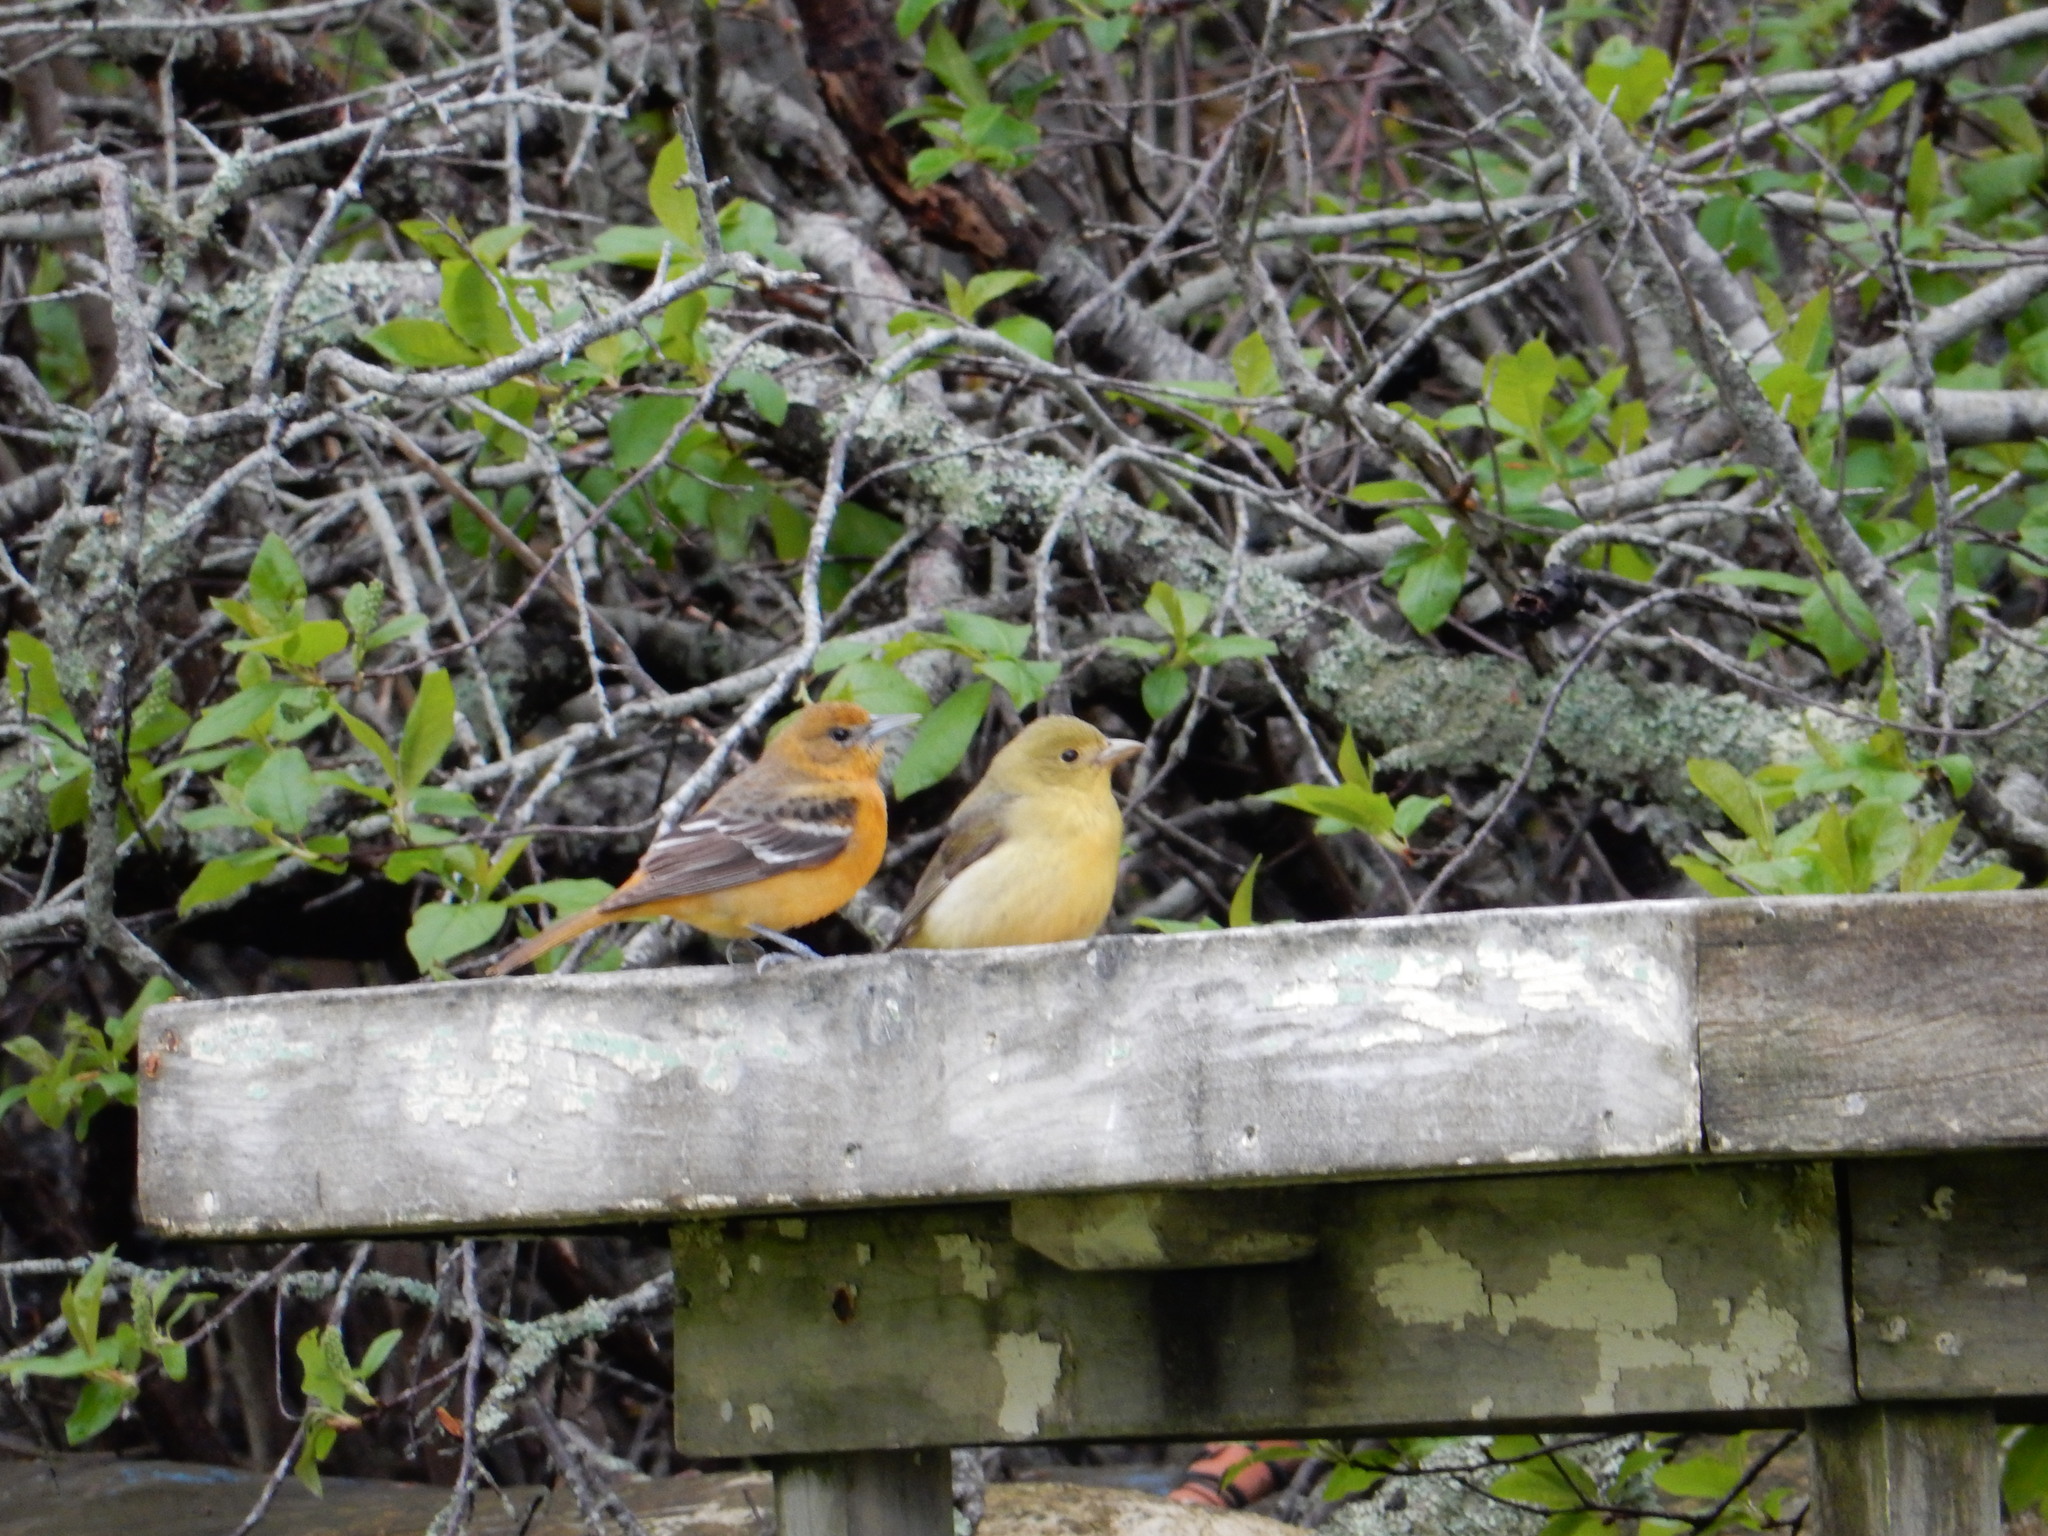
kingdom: Animalia
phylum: Chordata
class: Aves
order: Passeriformes
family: Icteridae
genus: Icterus
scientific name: Icterus galbula
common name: Baltimore oriole
